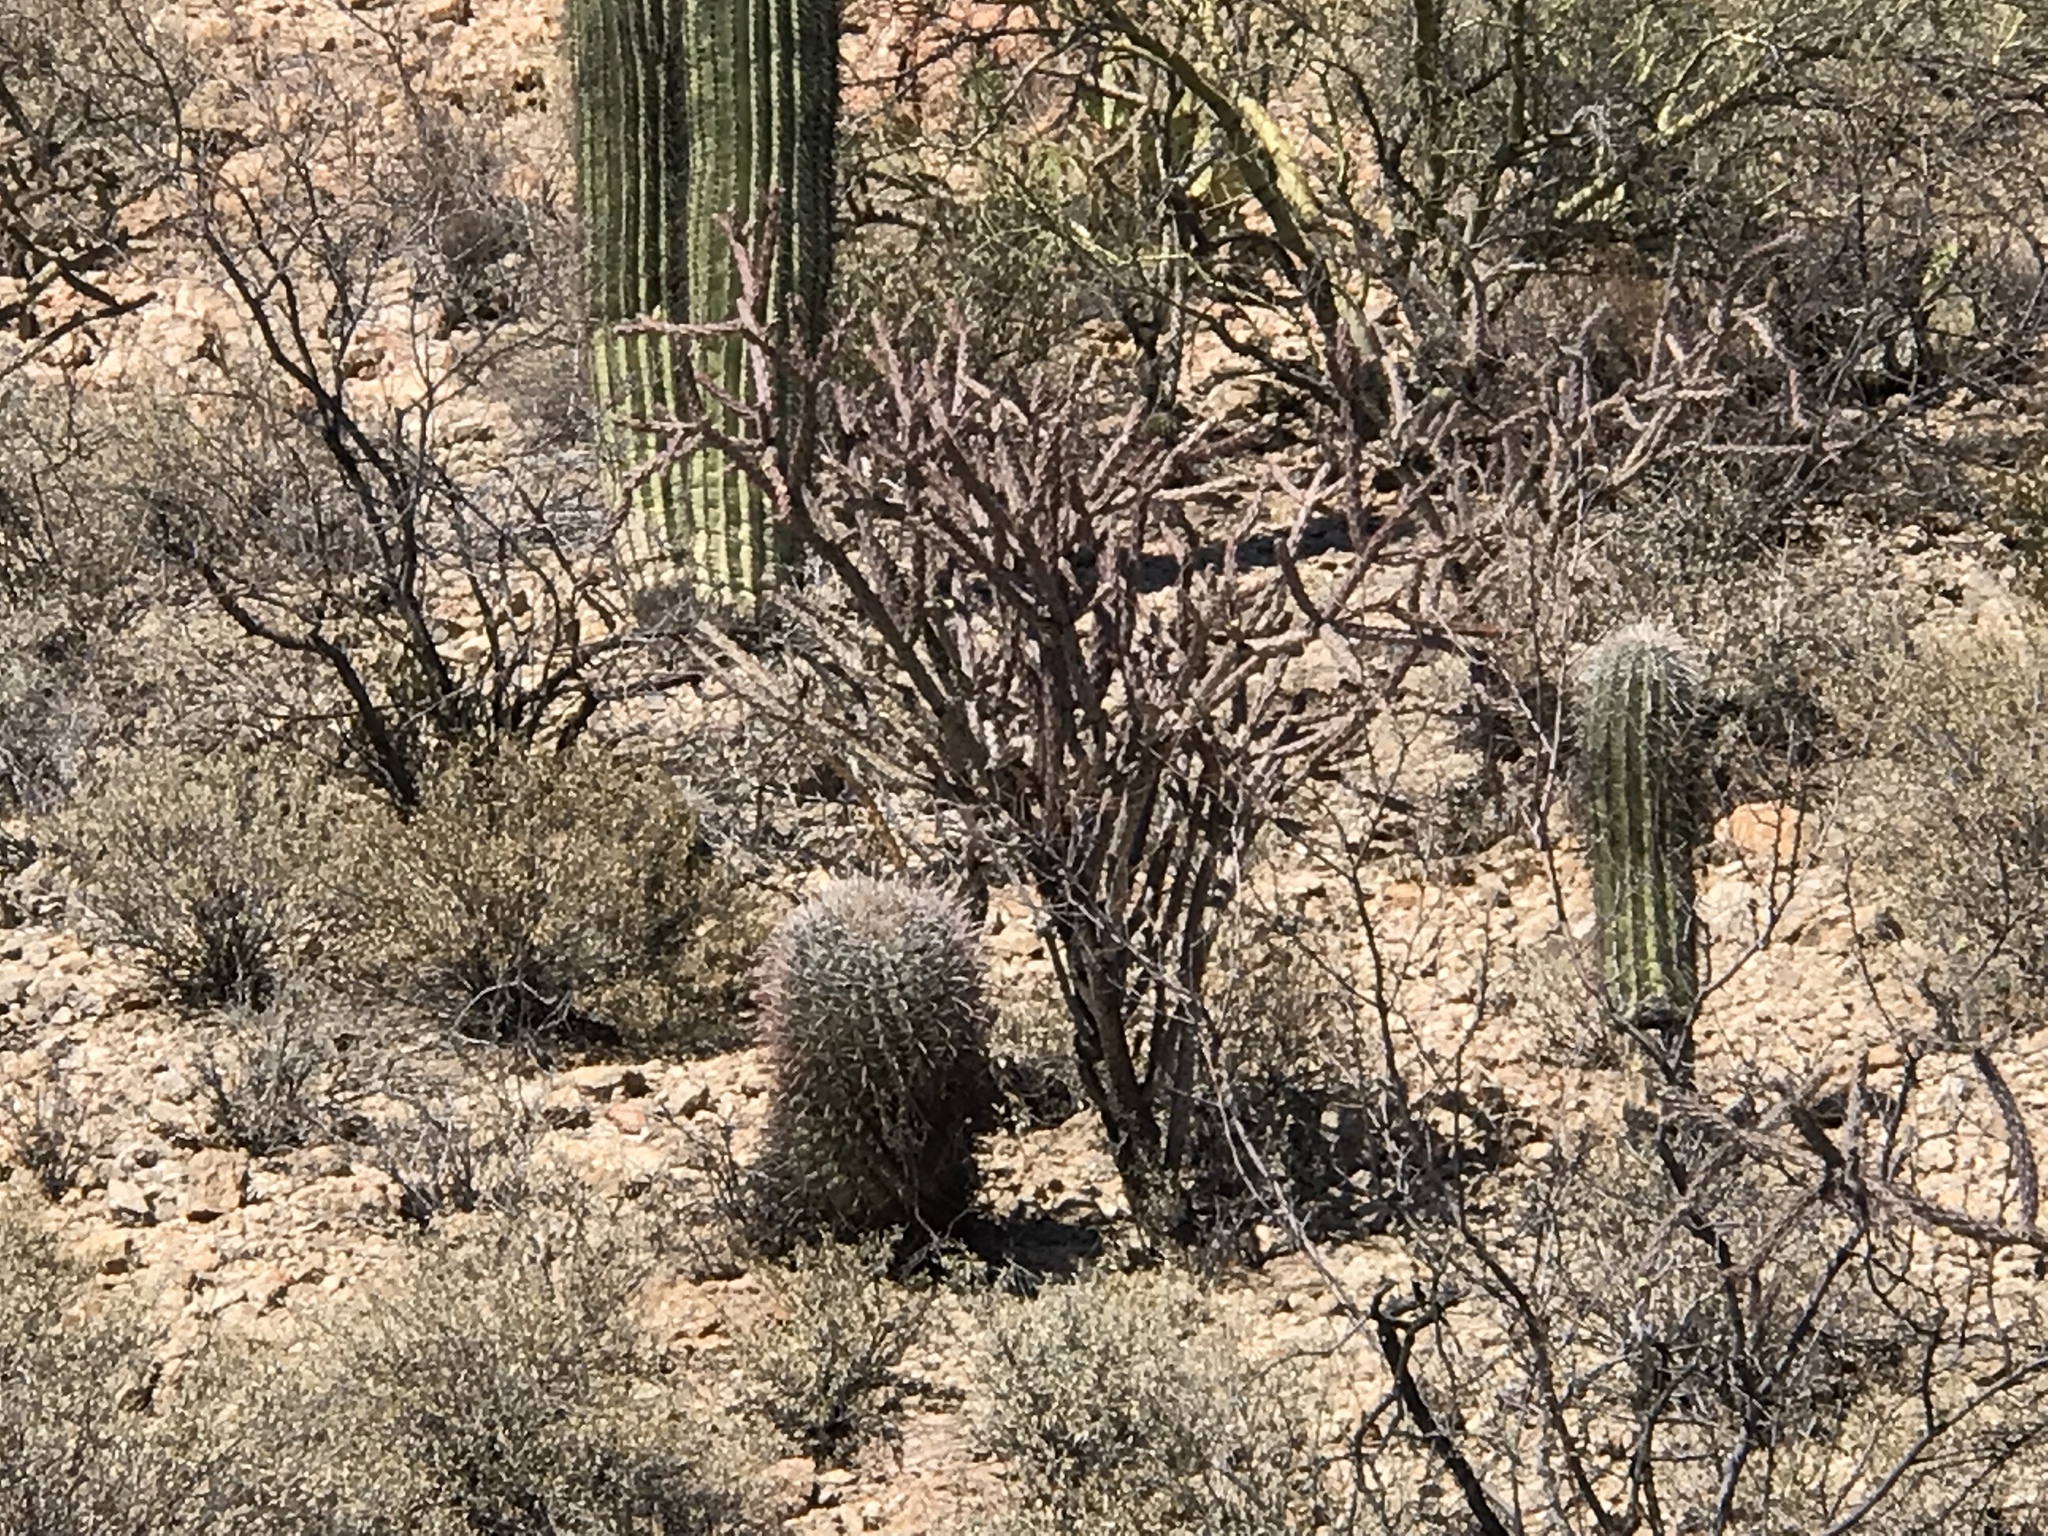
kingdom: Plantae
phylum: Tracheophyta
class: Magnoliopsida
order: Caryophyllales
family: Cactaceae
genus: Cylindropuntia
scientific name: Cylindropuntia thurberi
